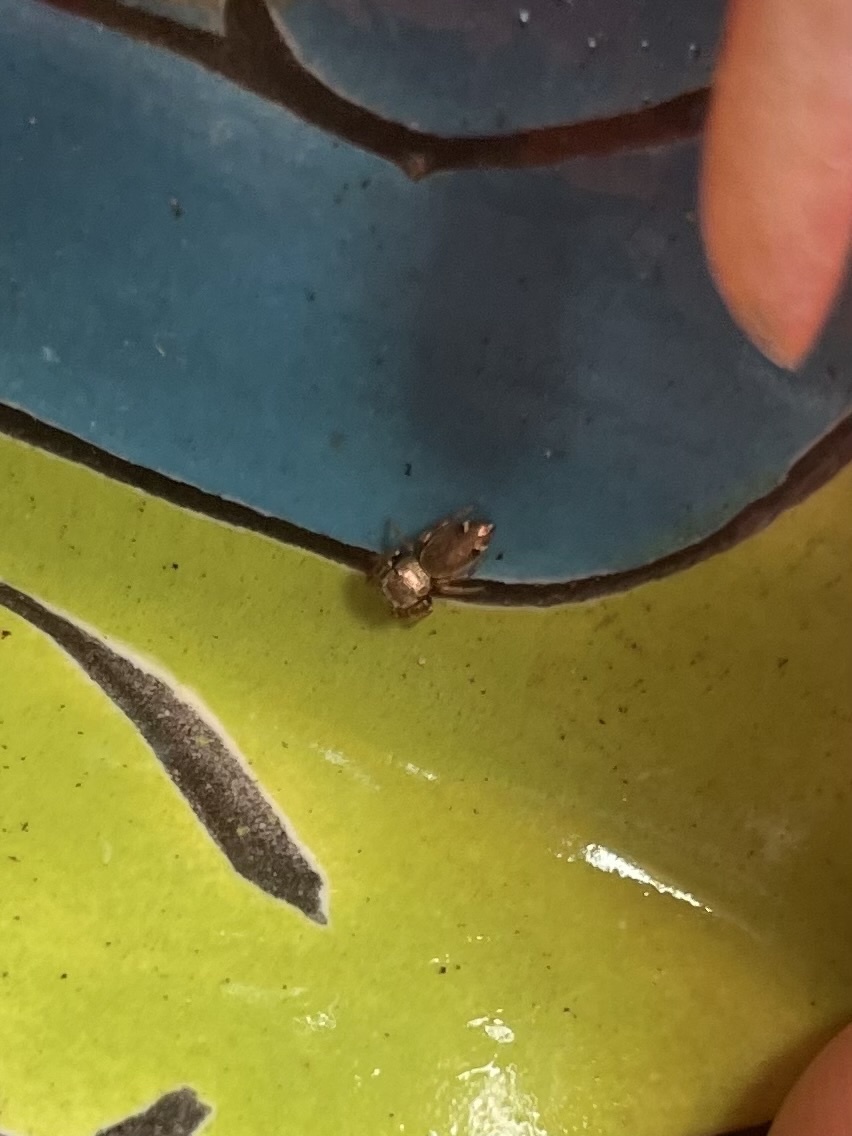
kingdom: Animalia
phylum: Arthropoda
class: Arachnida
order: Araneae
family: Salticidae
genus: Sassacus
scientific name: Sassacus vitis
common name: Jumping spiders
